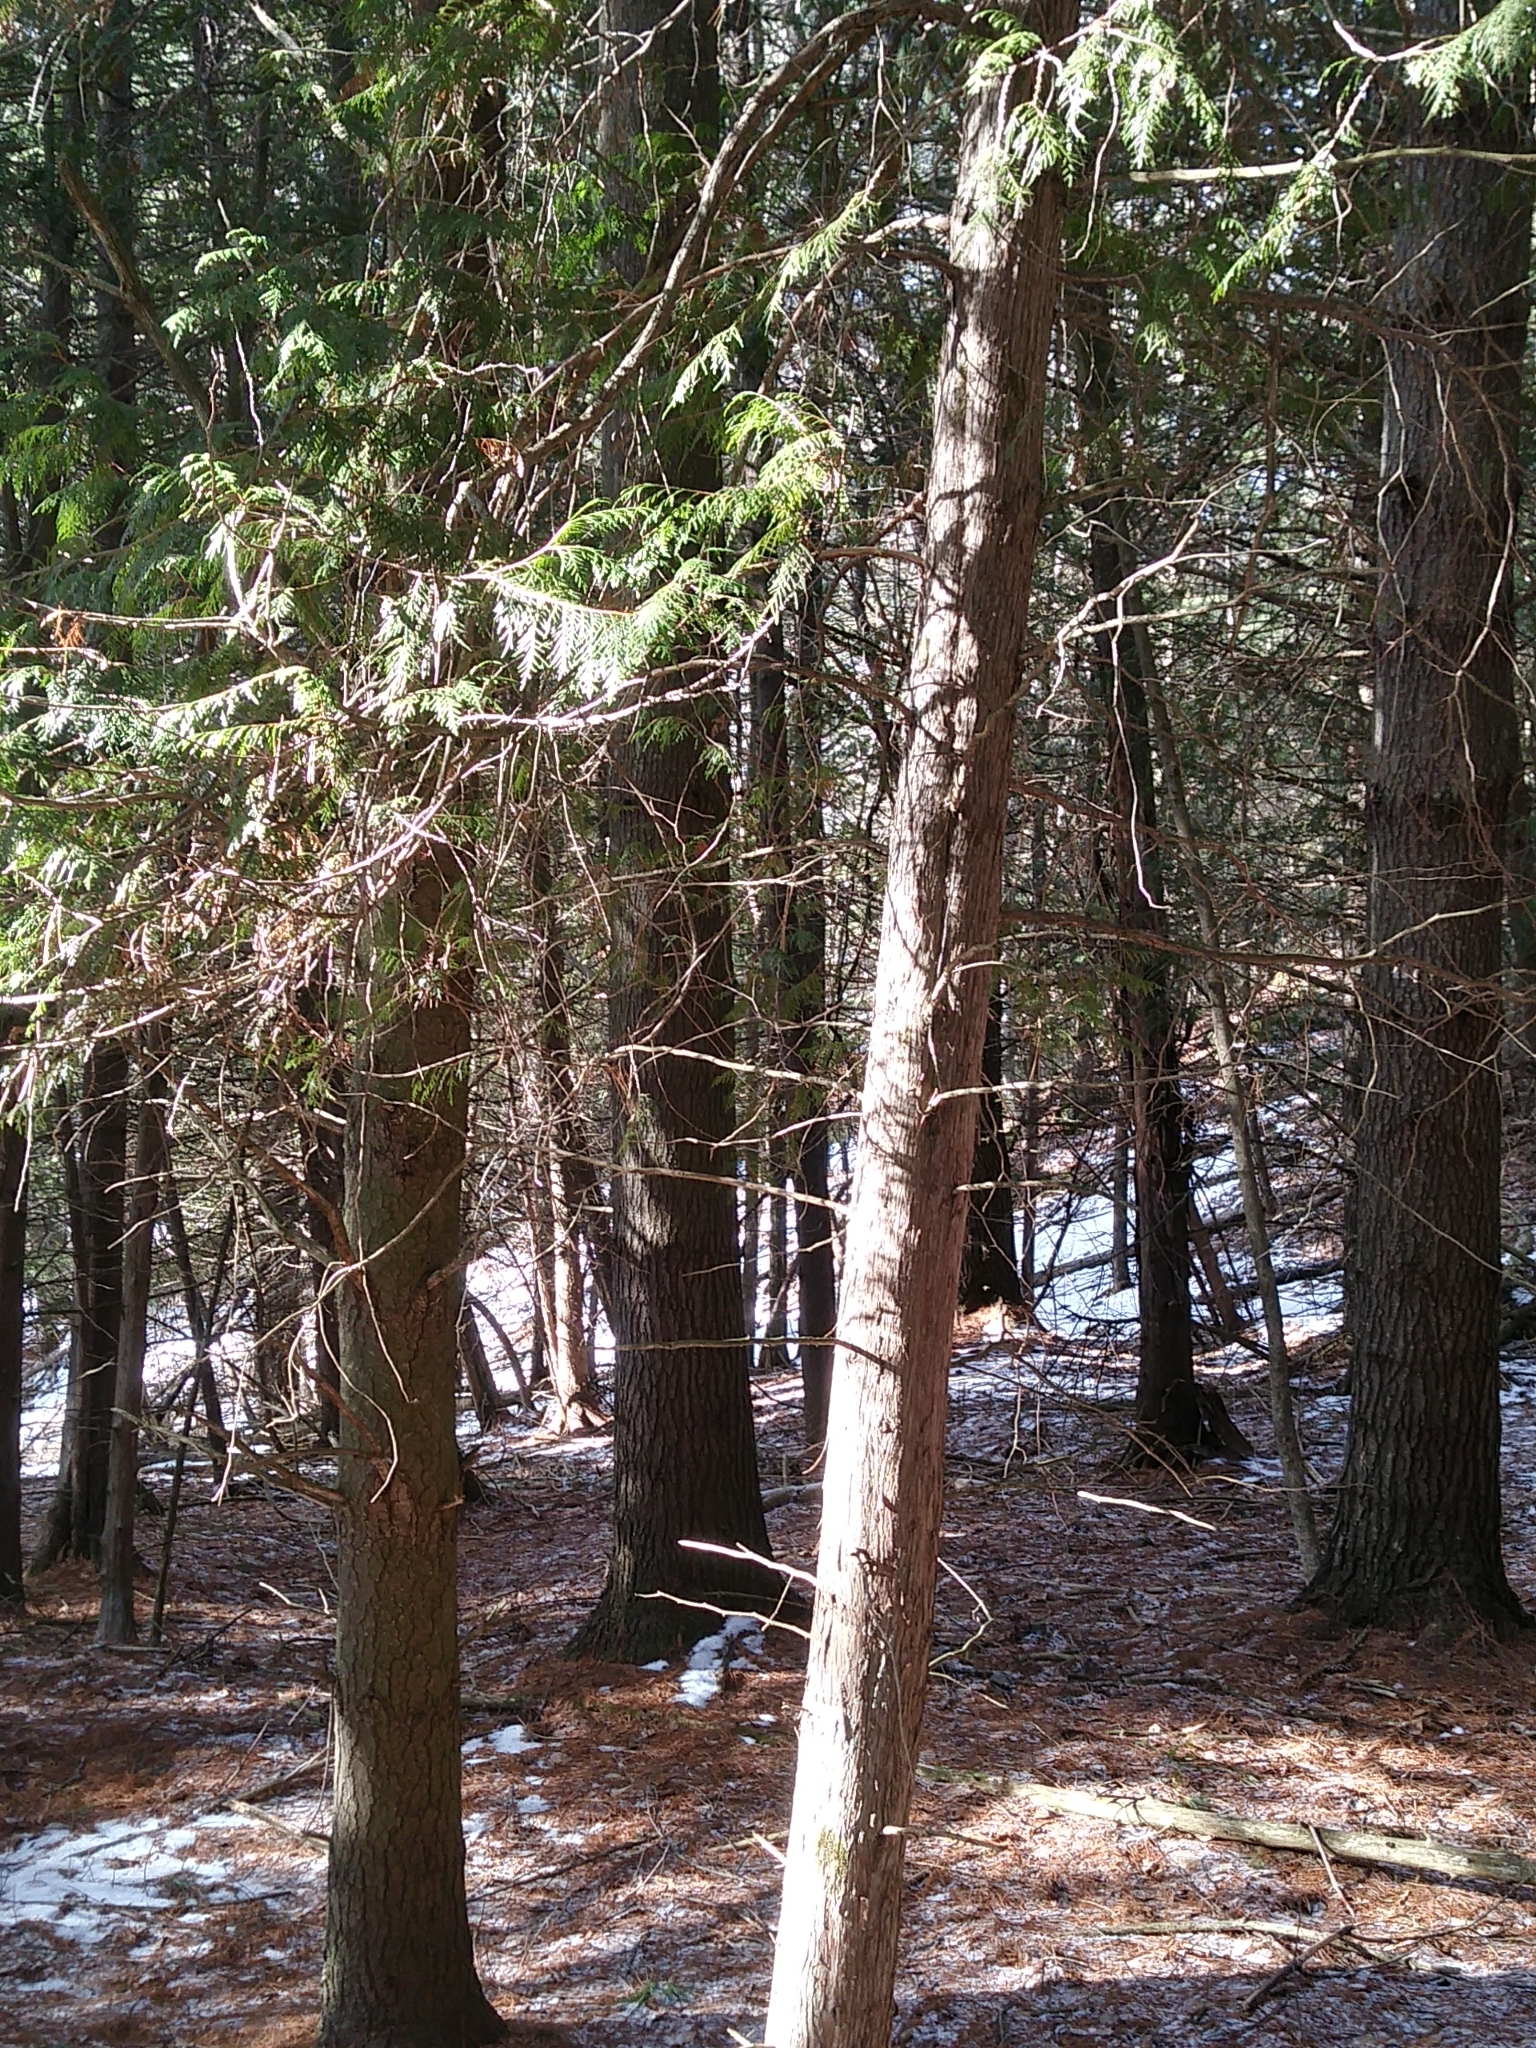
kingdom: Plantae
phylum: Tracheophyta
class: Pinopsida
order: Pinales
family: Cupressaceae
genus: Thuja
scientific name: Thuja occidentalis
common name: Northern white-cedar
